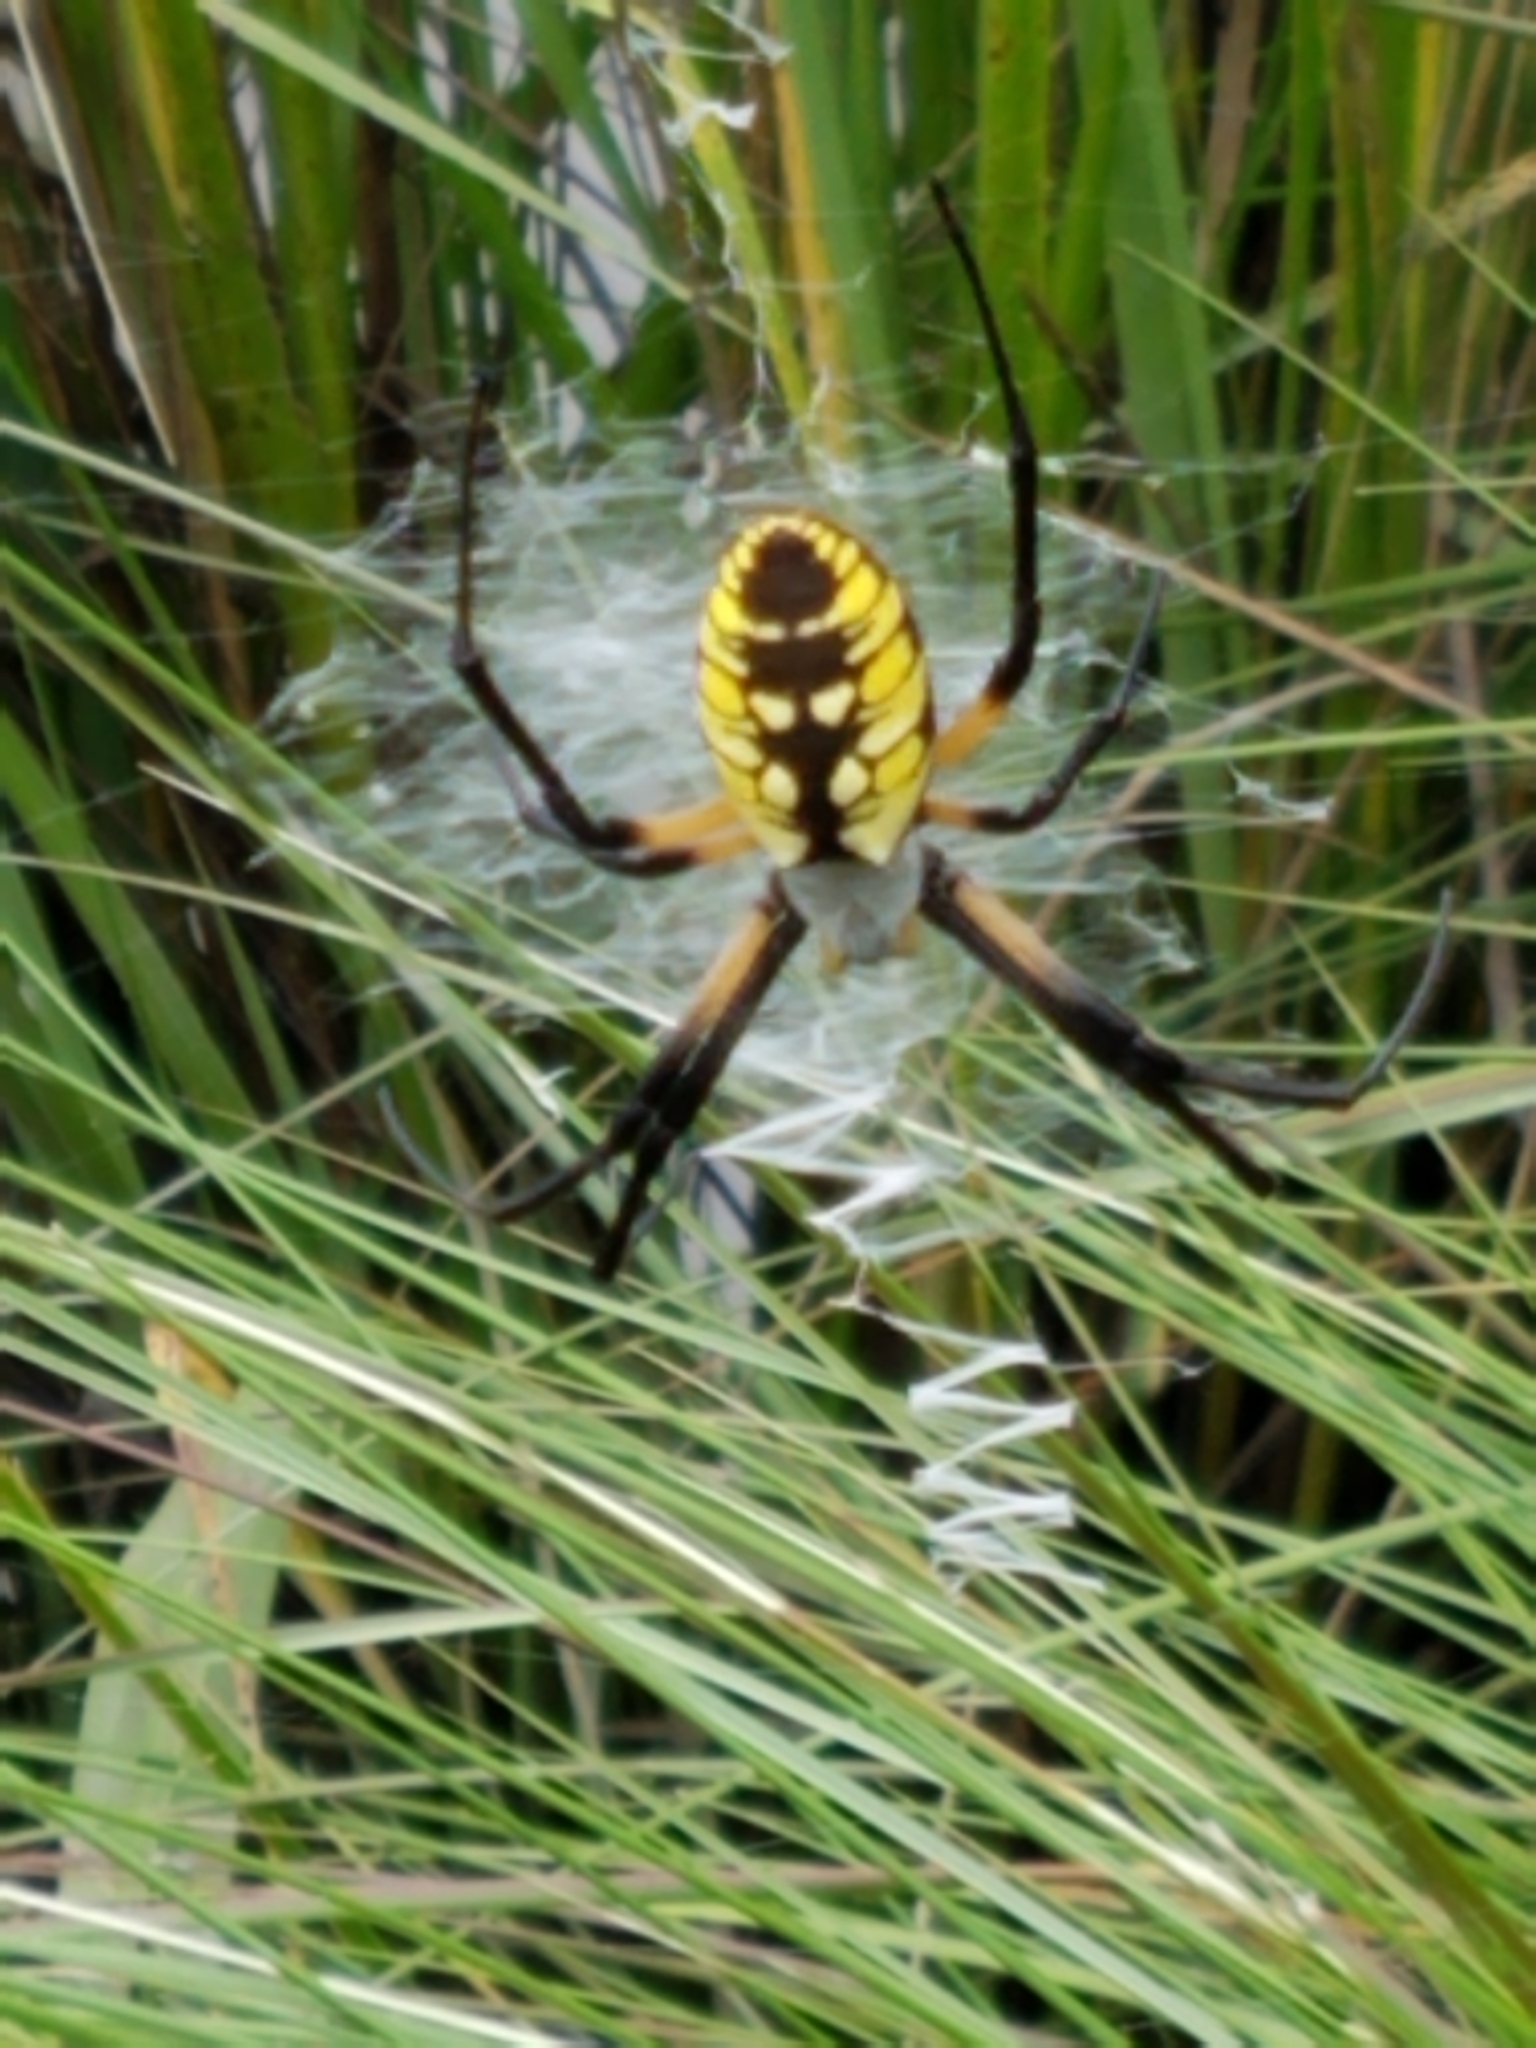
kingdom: Animalia
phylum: Arthropoda
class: Arachnida
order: Araneae
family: Araneidae
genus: Argiope
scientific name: Argiope aurantia
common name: Orb weavers
